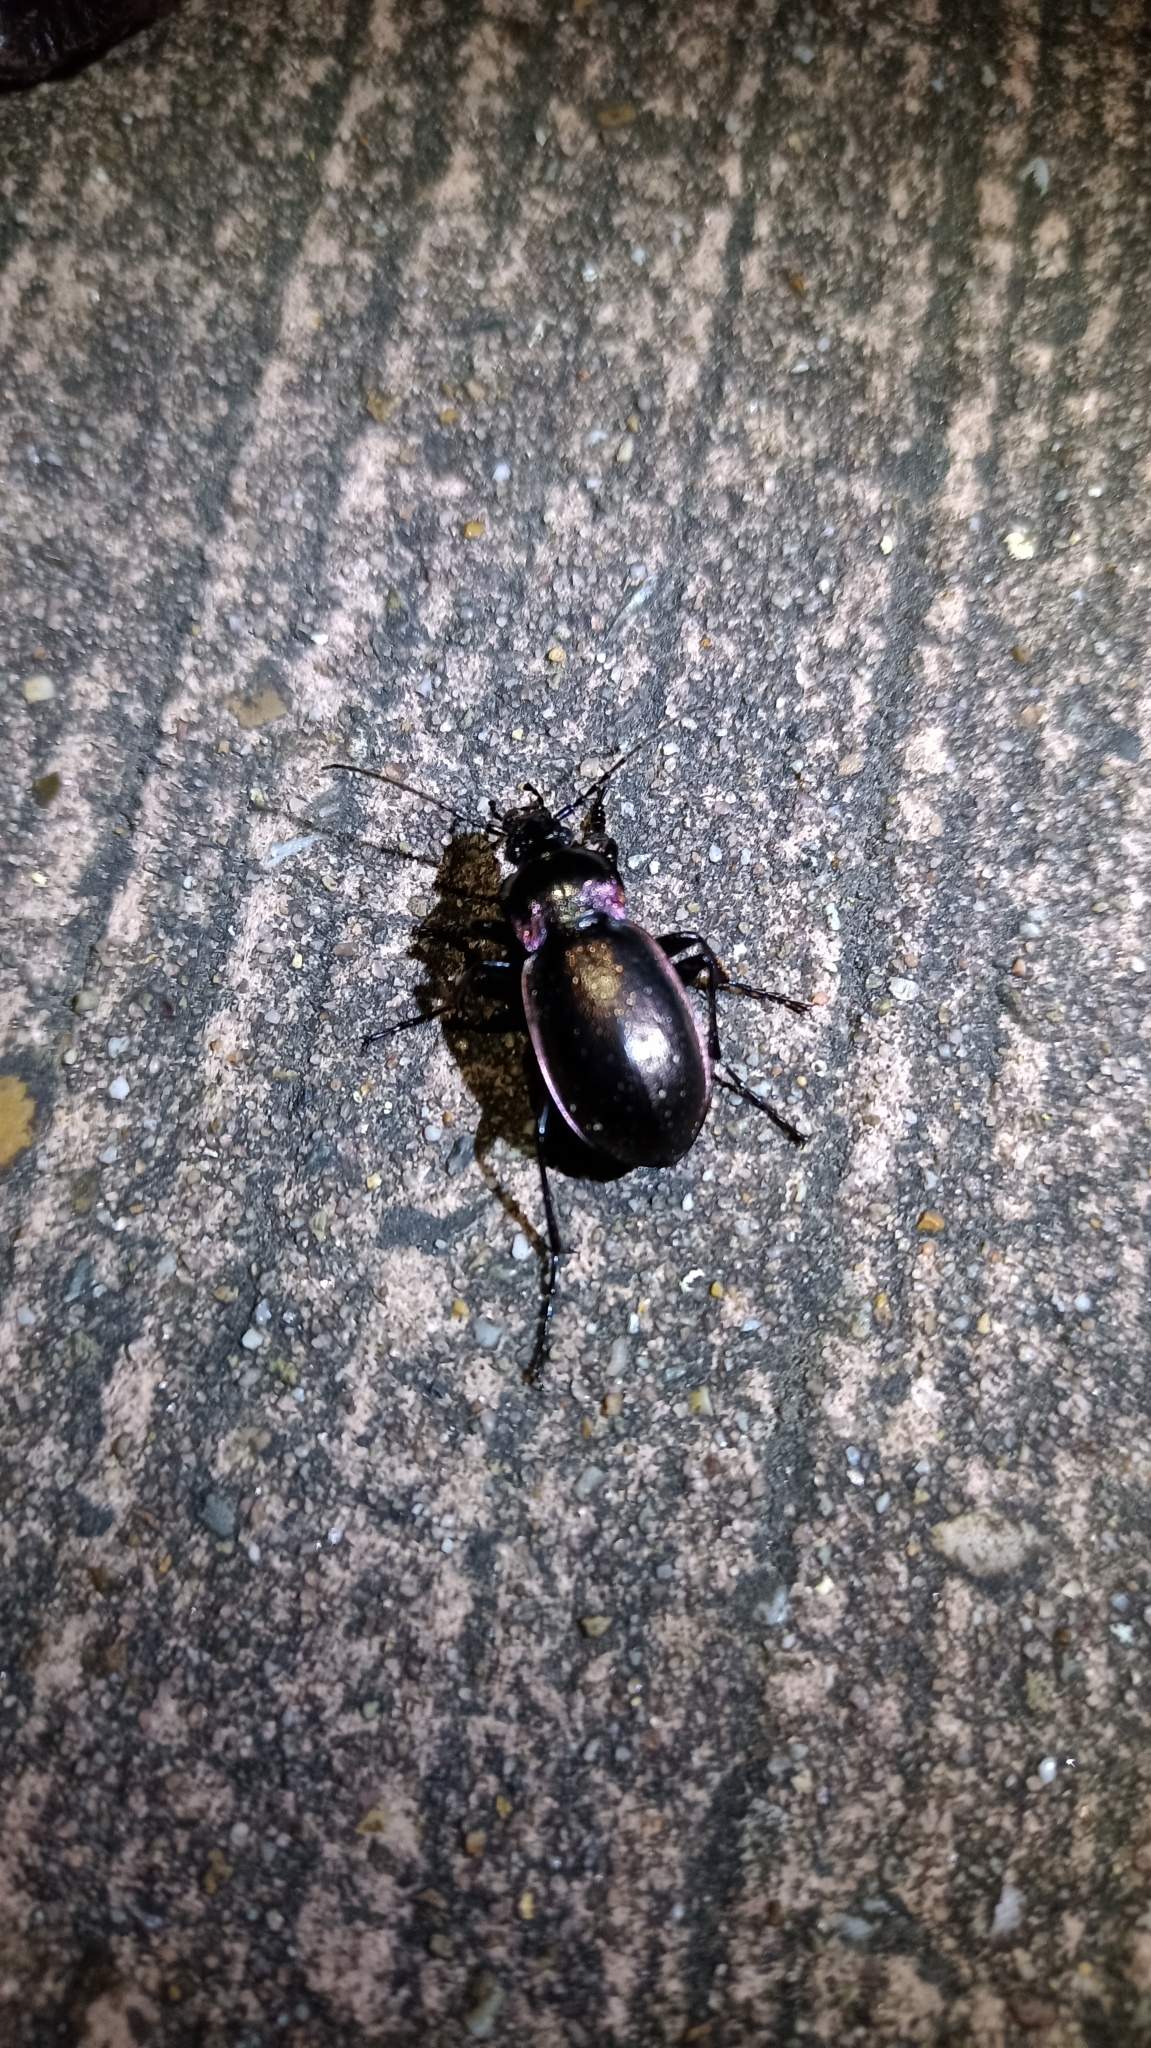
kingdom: Animalia
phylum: Arthropoda
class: Insecta
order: Coleoptera
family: Carabidae
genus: Carabus
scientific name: Carabus nemoralis
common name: European ground beetle
